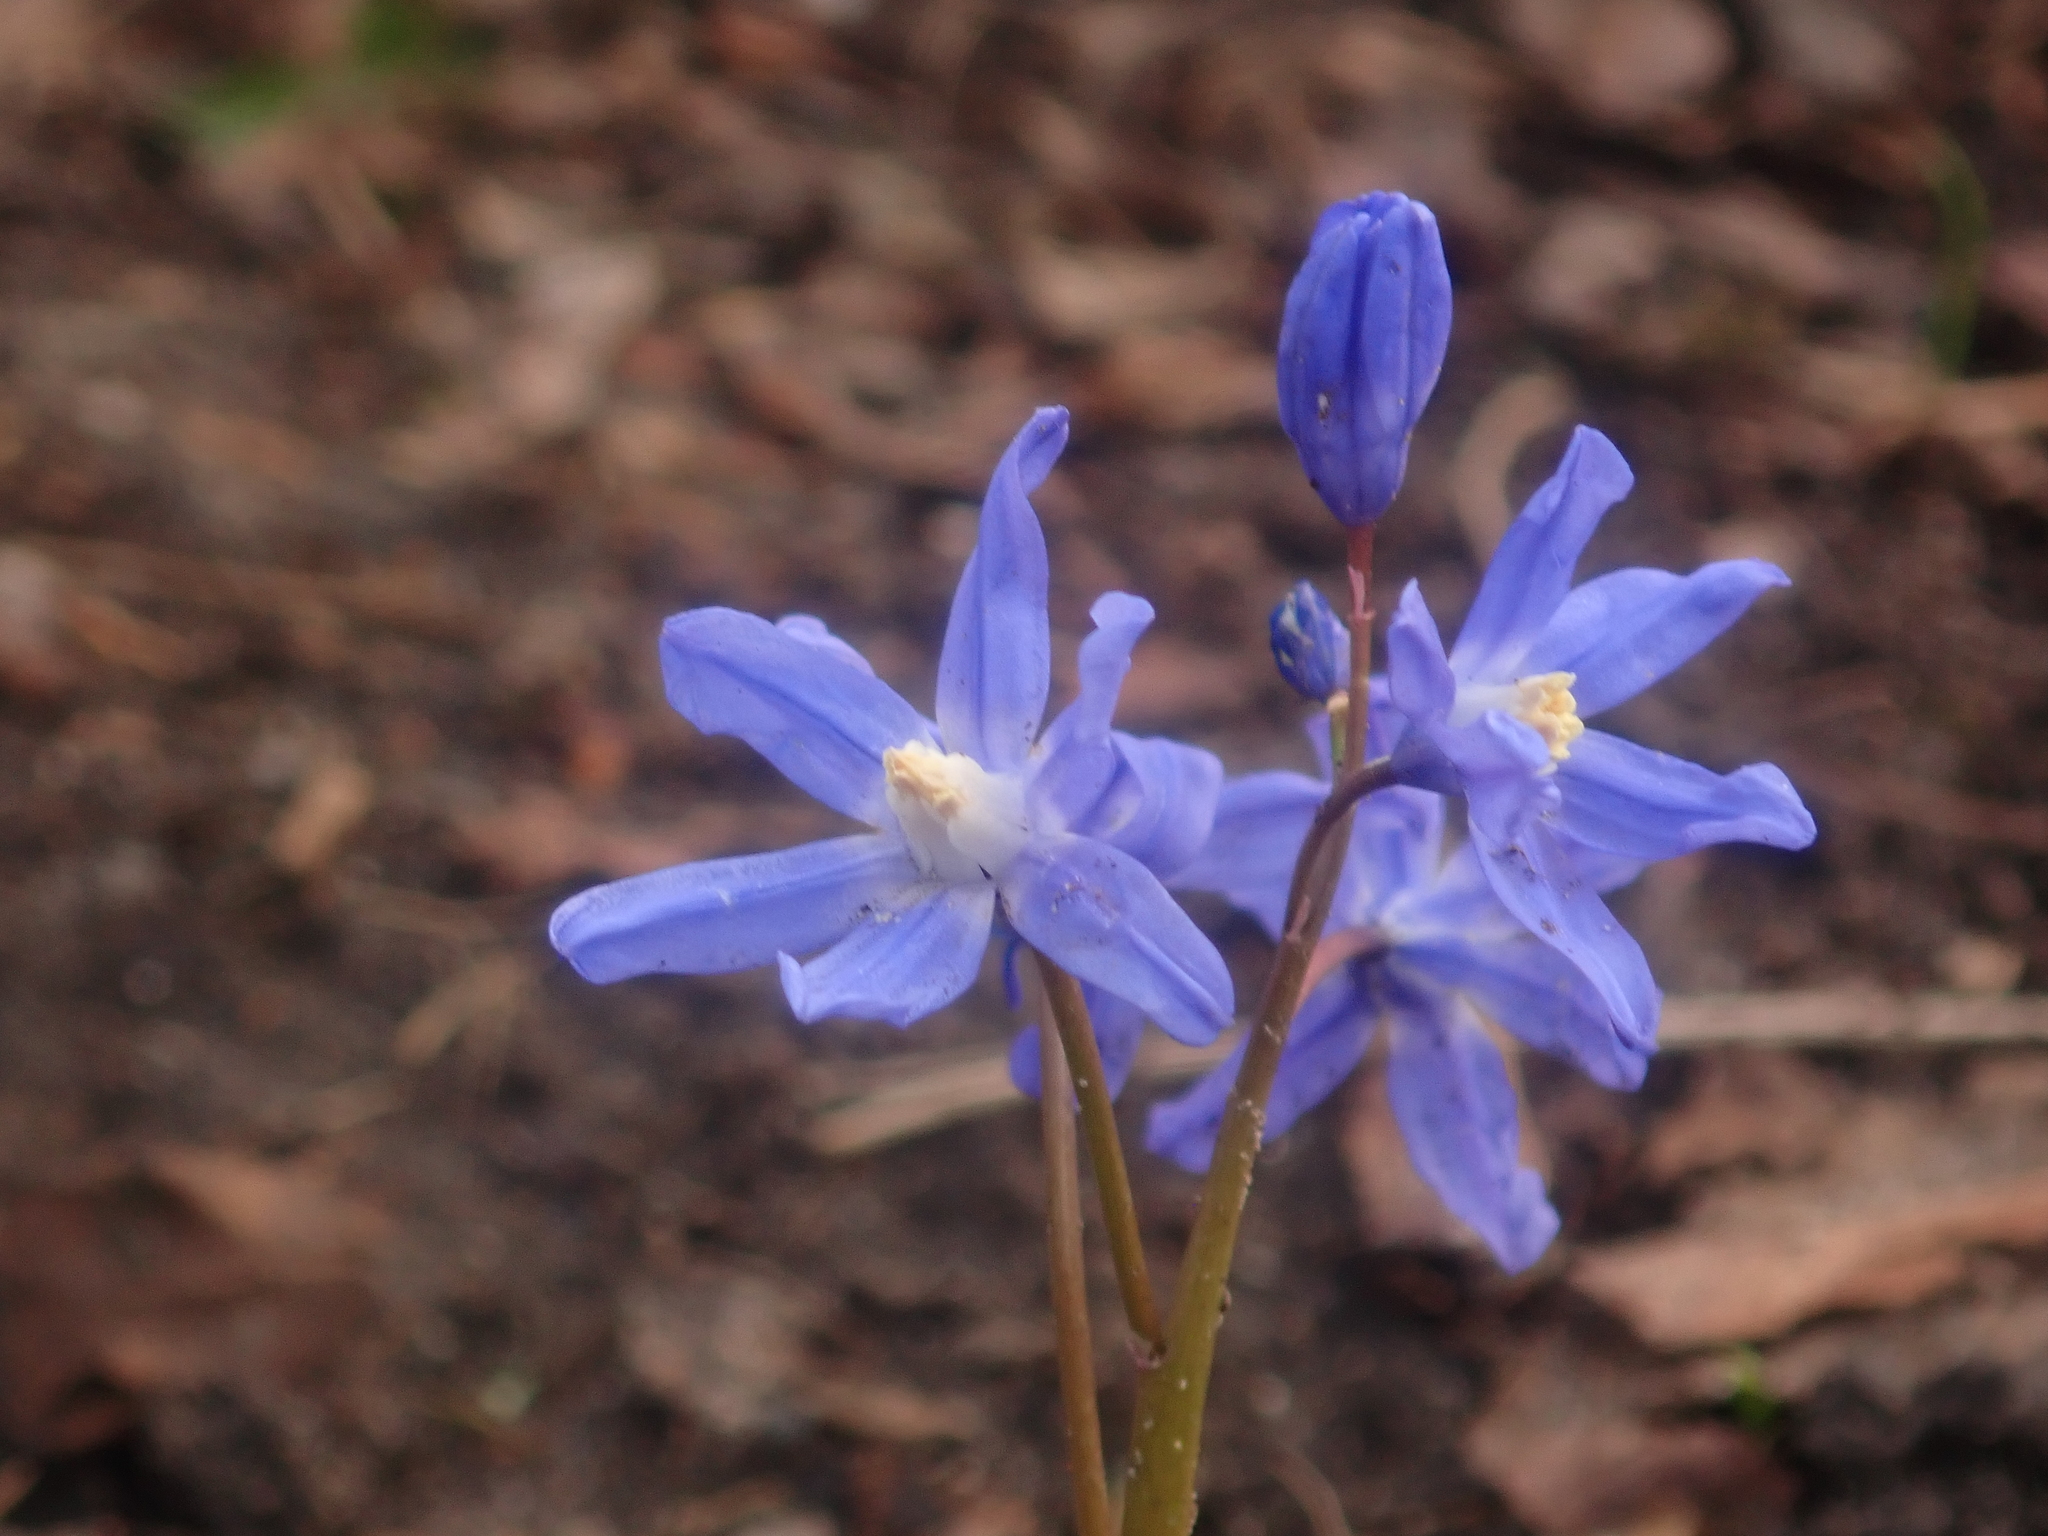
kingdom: Plantae
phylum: Tracheophyta
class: Liliopsida
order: Asparagales
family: Asparagaceae
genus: Scilla
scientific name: Scilla forbesii
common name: Glory-of-the-snow
